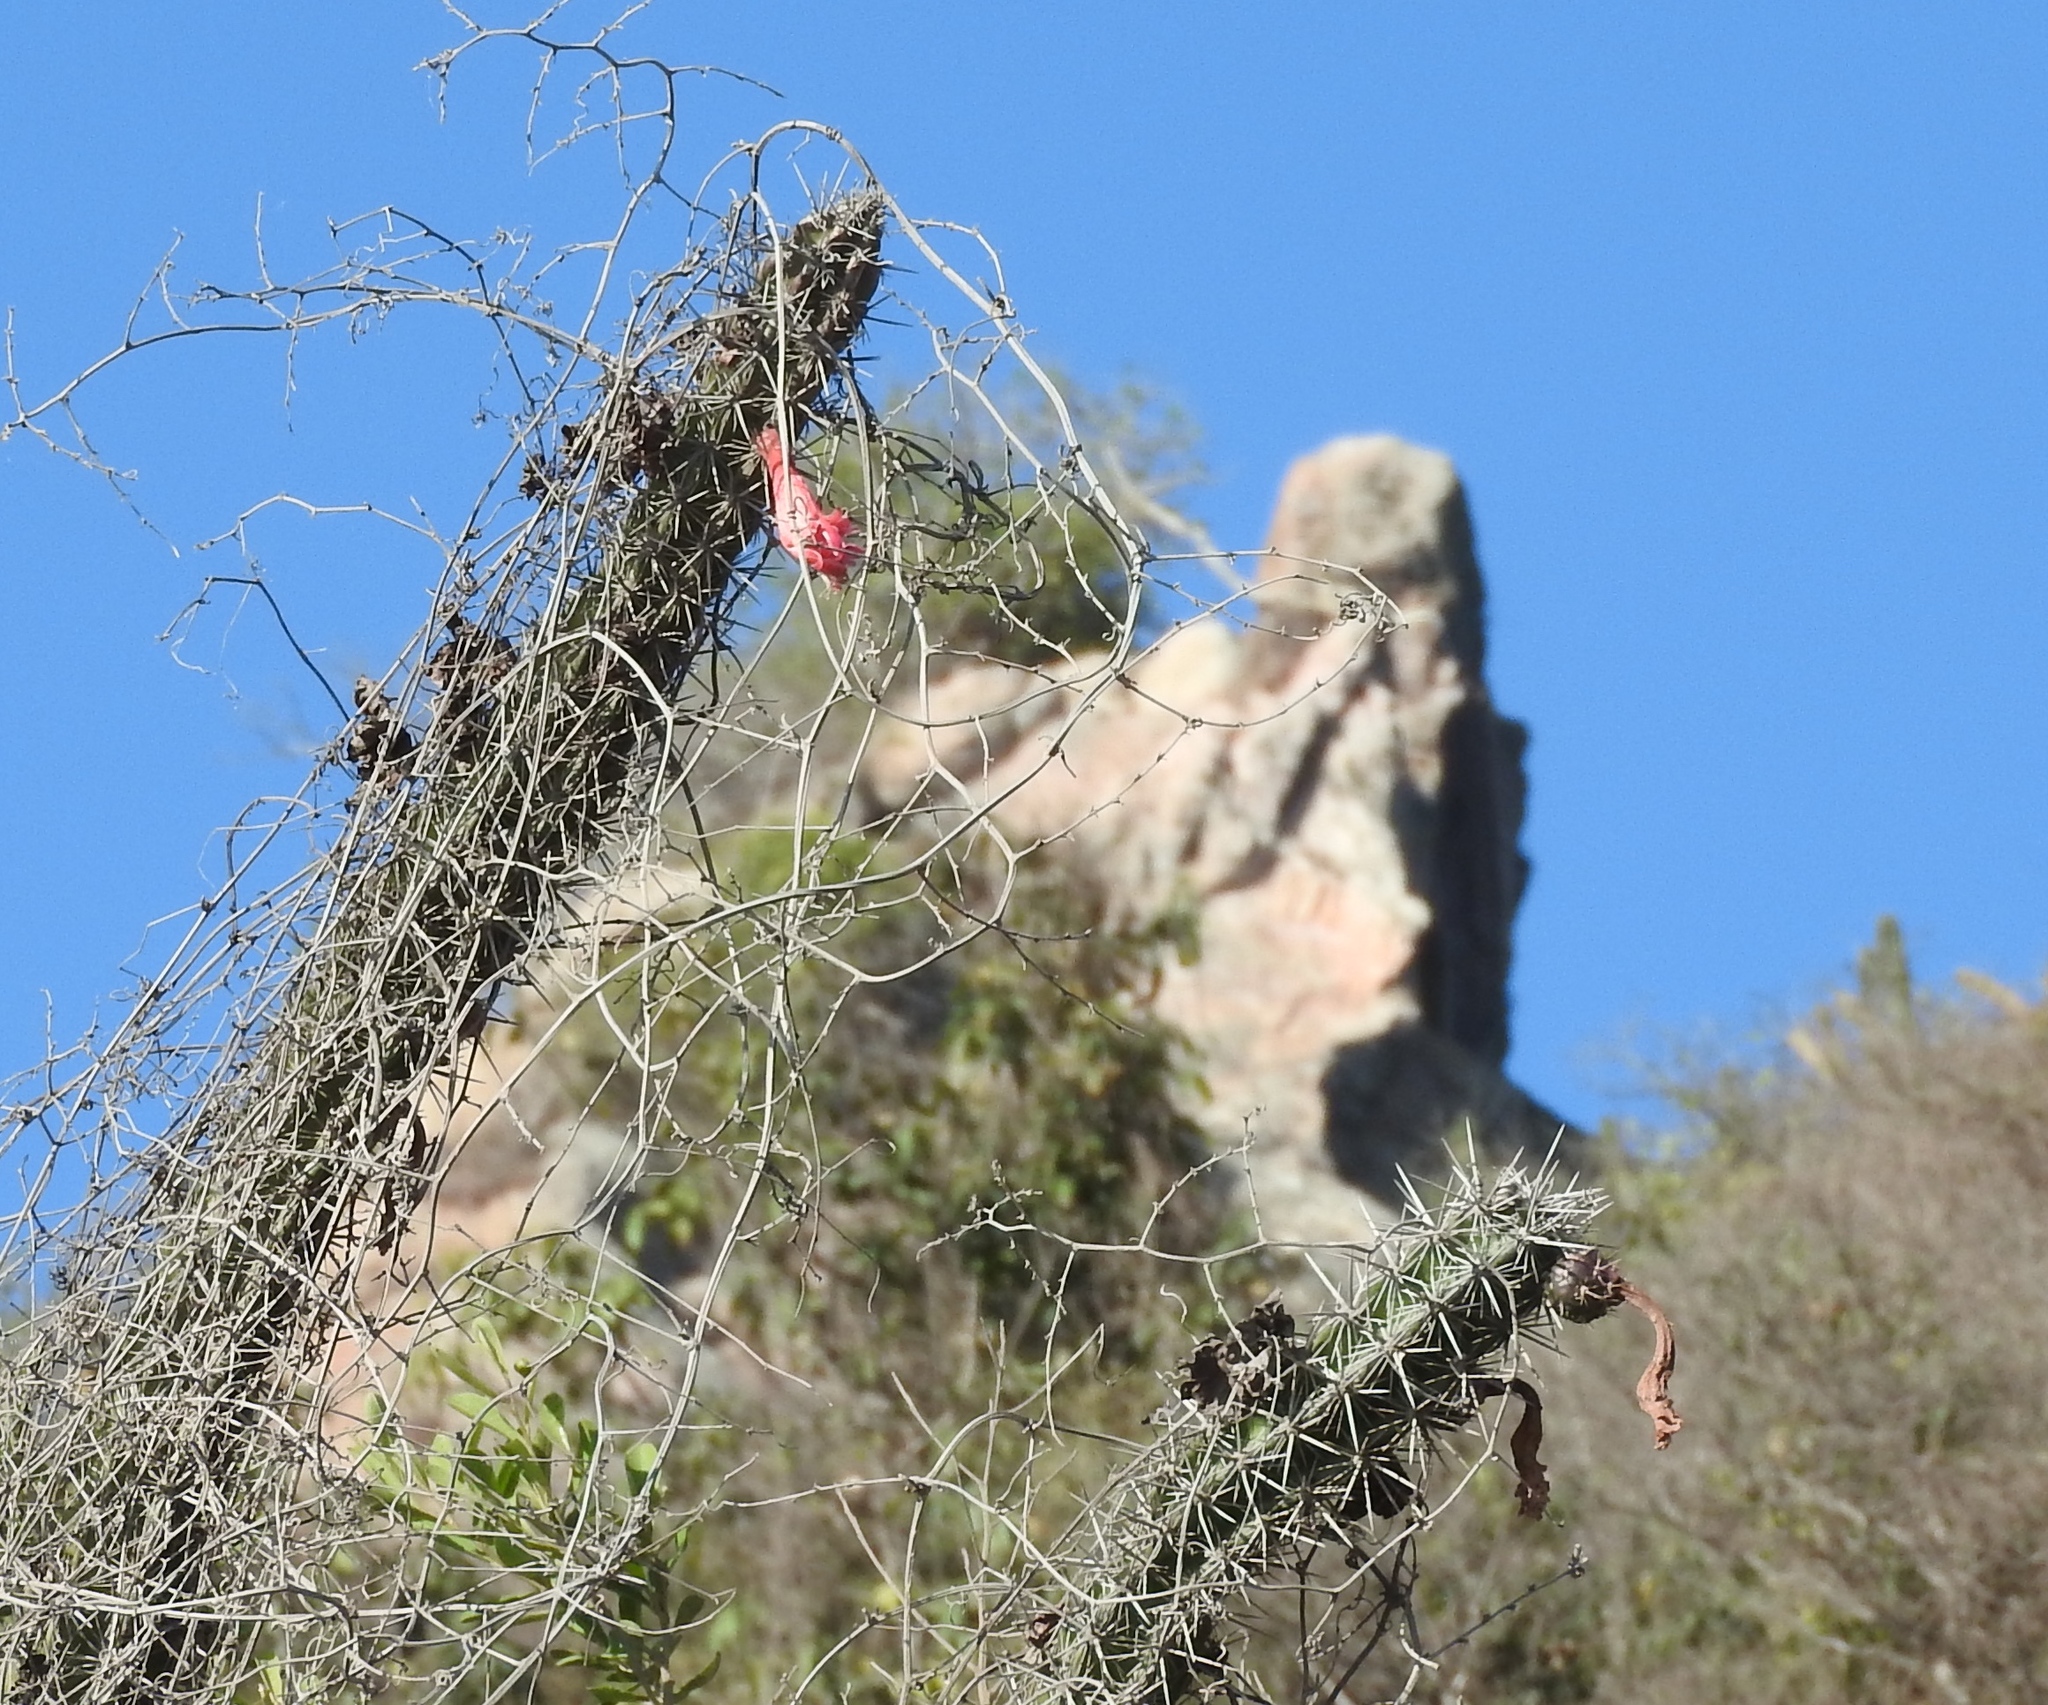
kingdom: Plantae
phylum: Tracheophyta
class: Magnoliopsida
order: Caryophyllales
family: Cactaceae
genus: Stenocereus
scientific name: Stenocereus alamosensis
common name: Octopus cactus
